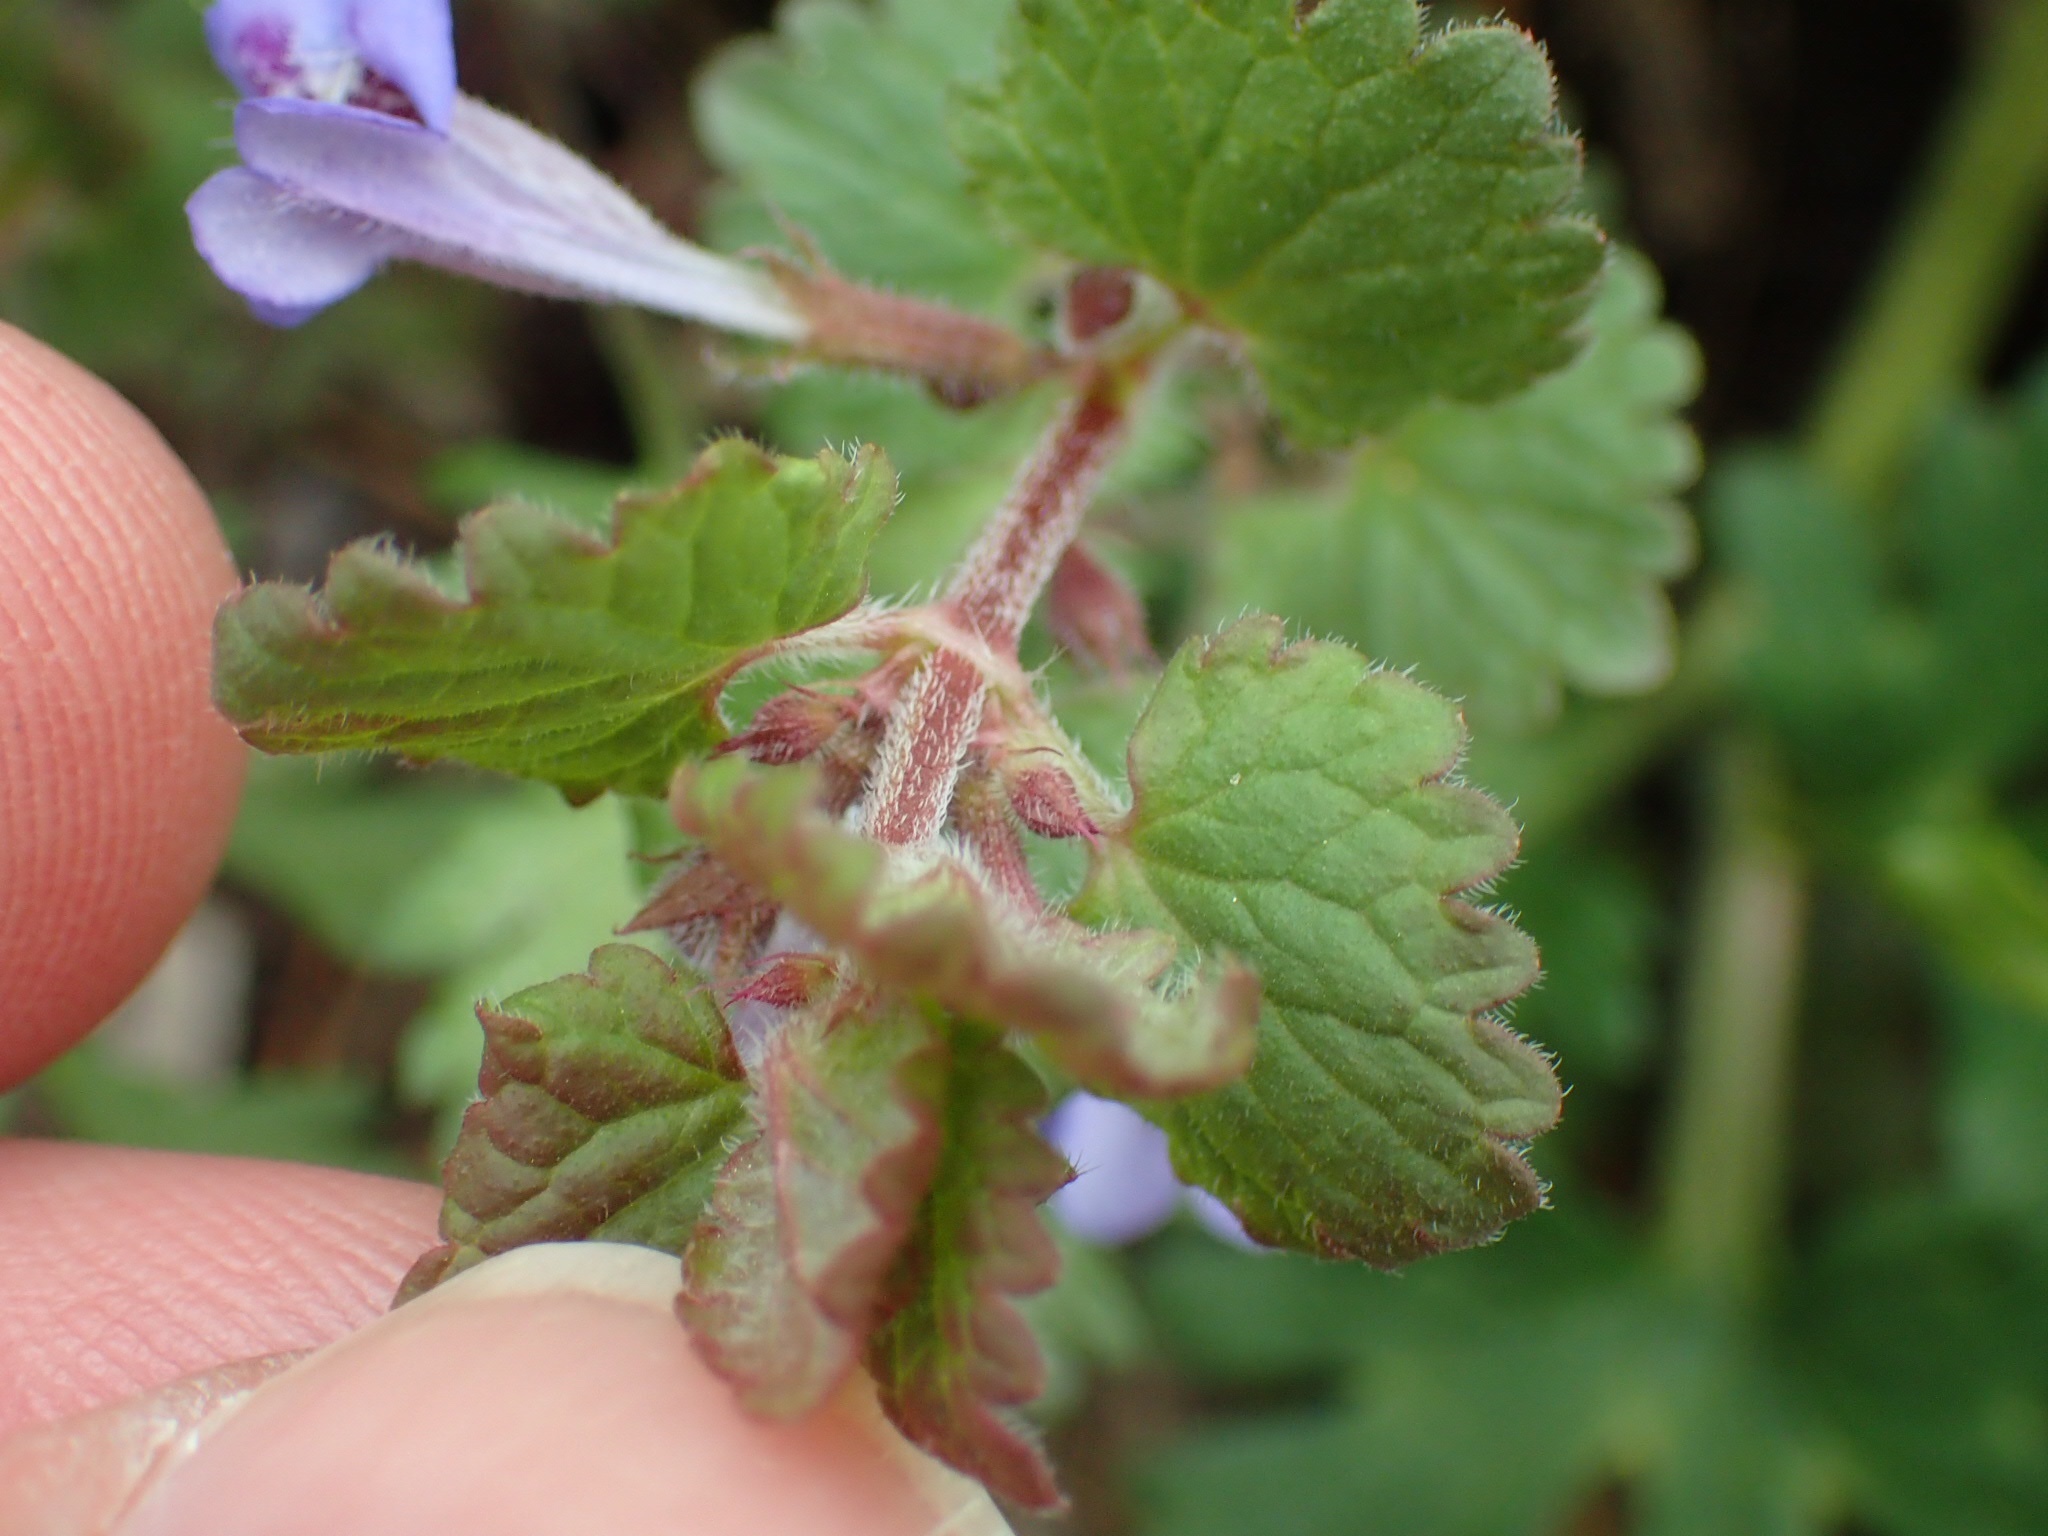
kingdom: Plantae
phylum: Tracheophyta
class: Magnoliopsida
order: Lamiales
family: Lamiaceae
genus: Glechoma
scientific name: Glechoma hederacea
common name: Ground ivy
